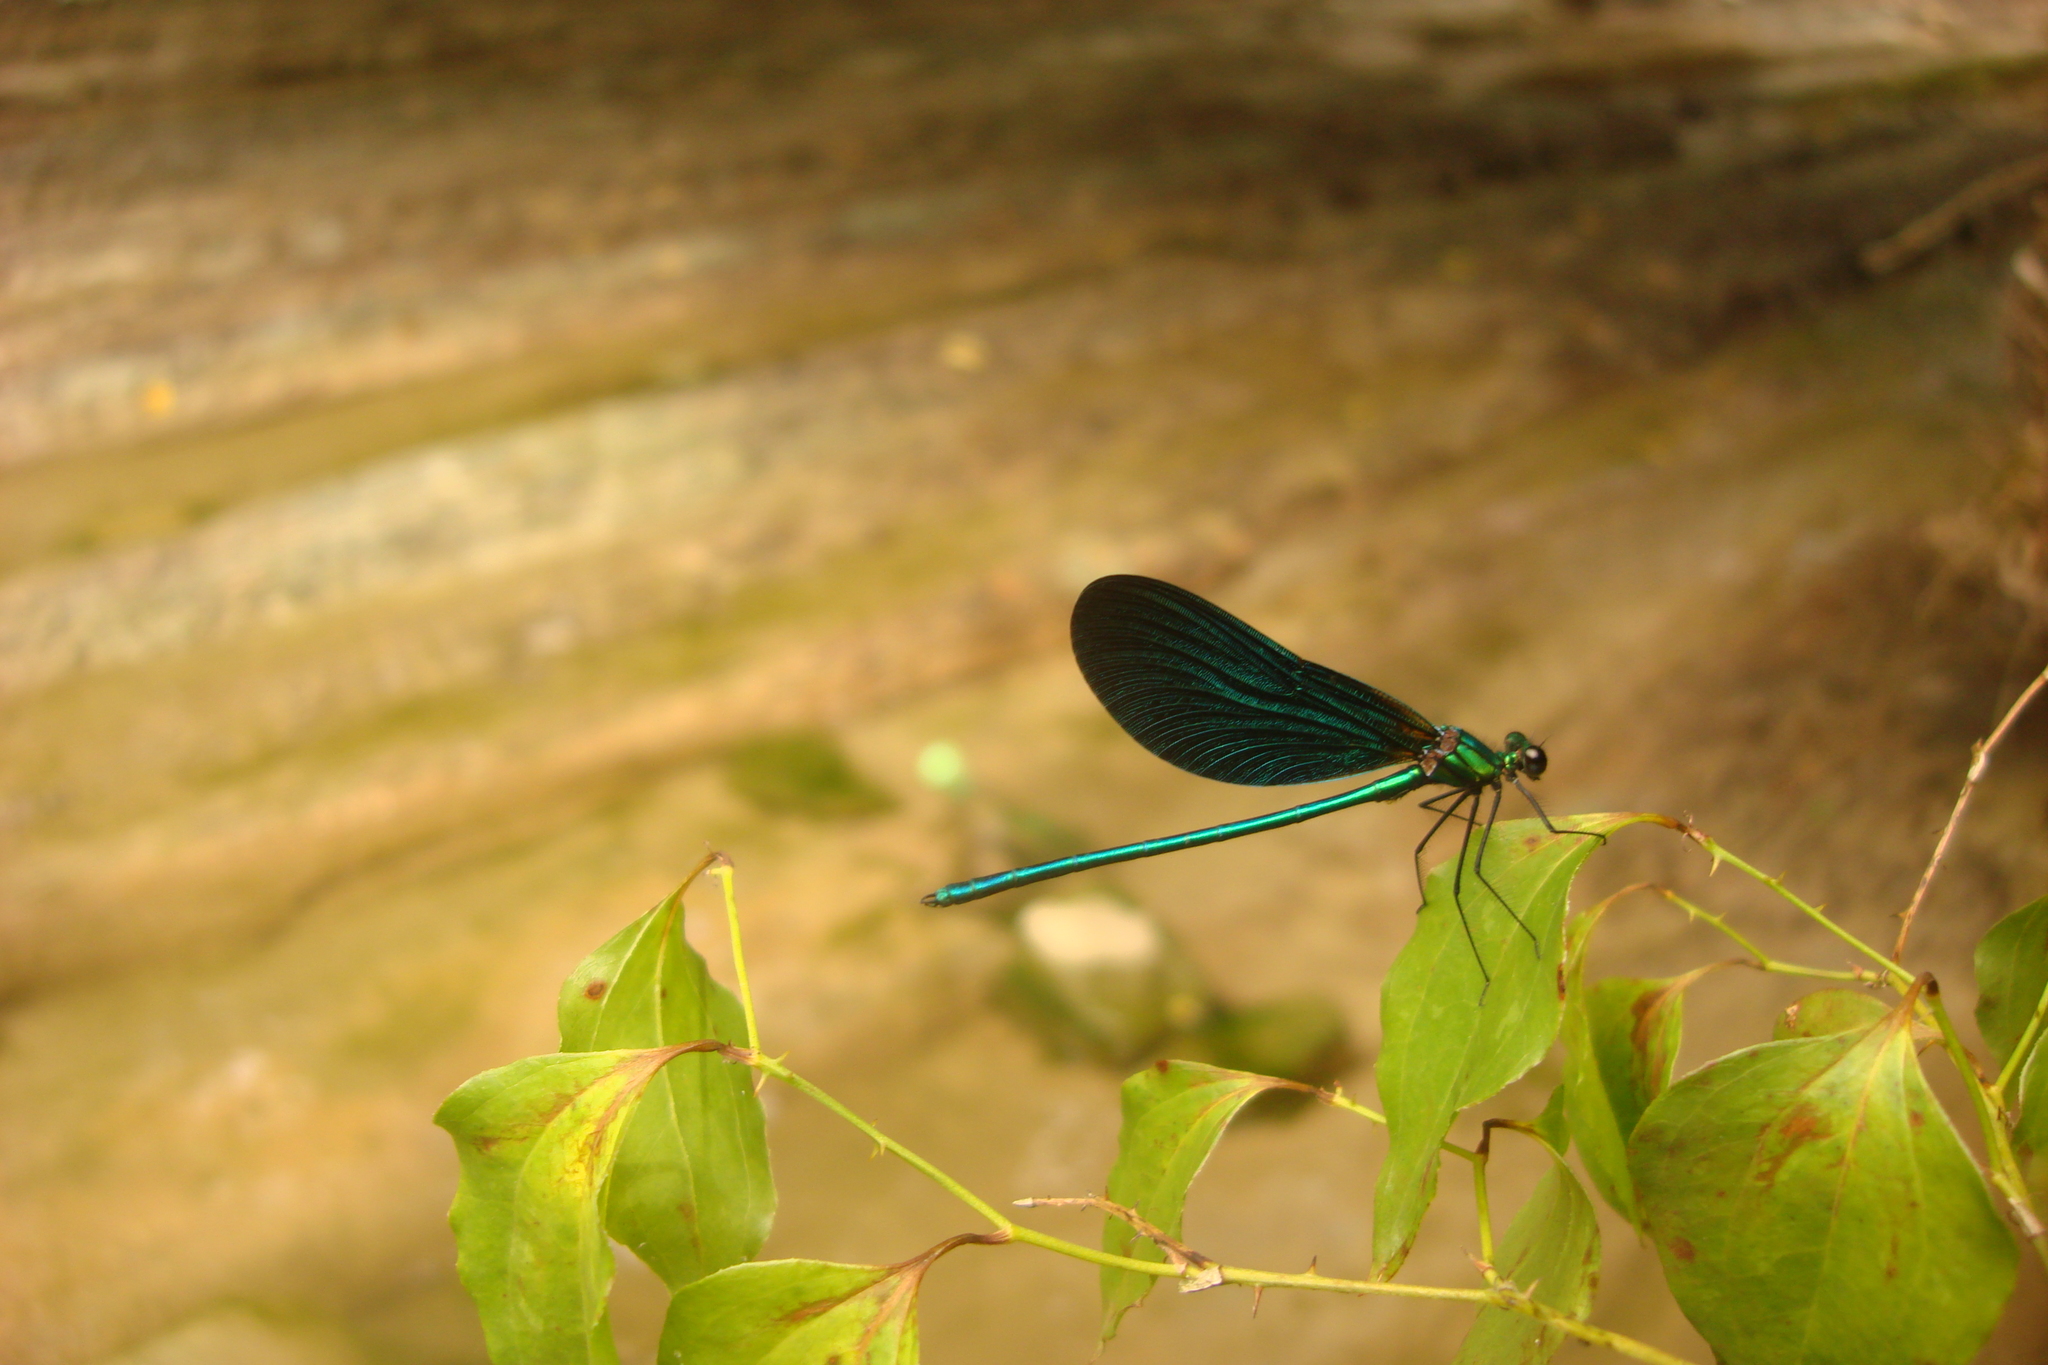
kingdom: Animalia
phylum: Arthropoda
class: Insecta
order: Odonata
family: Calopterygidae
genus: Calopteryx
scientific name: Calopteryx virgo
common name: Beautiful demoiselle
